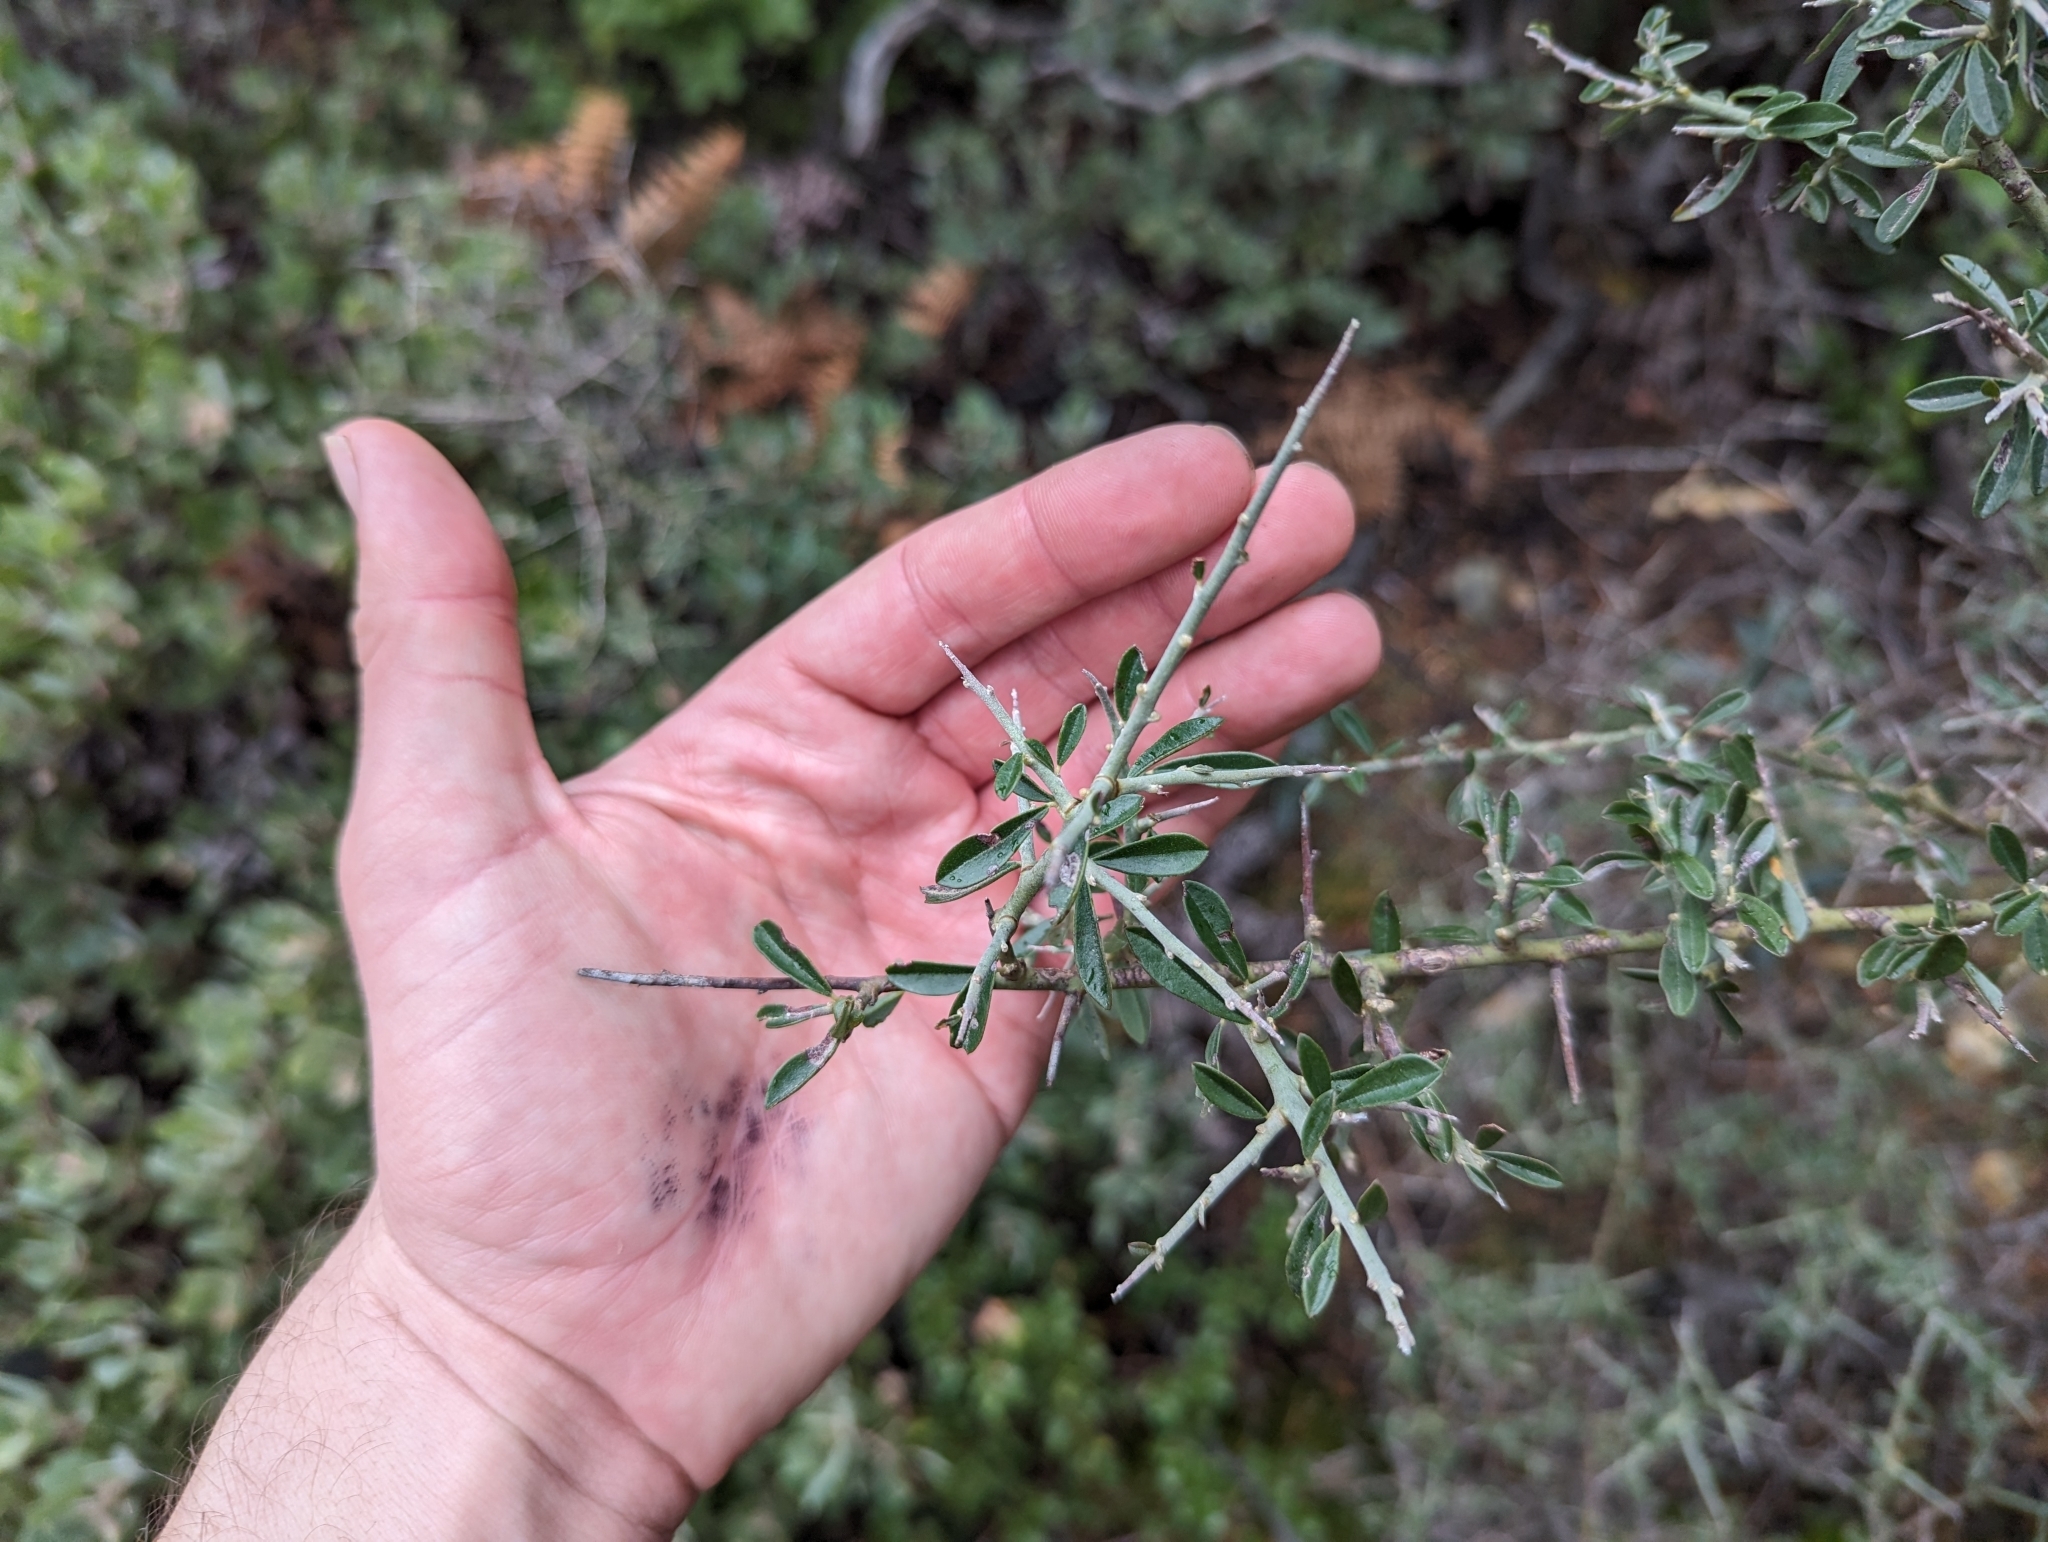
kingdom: Plantae
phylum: Tracheophyta
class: Magnoliopsida
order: Fabales
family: Fabaceae
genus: Pickeringia
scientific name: Pickeringia montana
